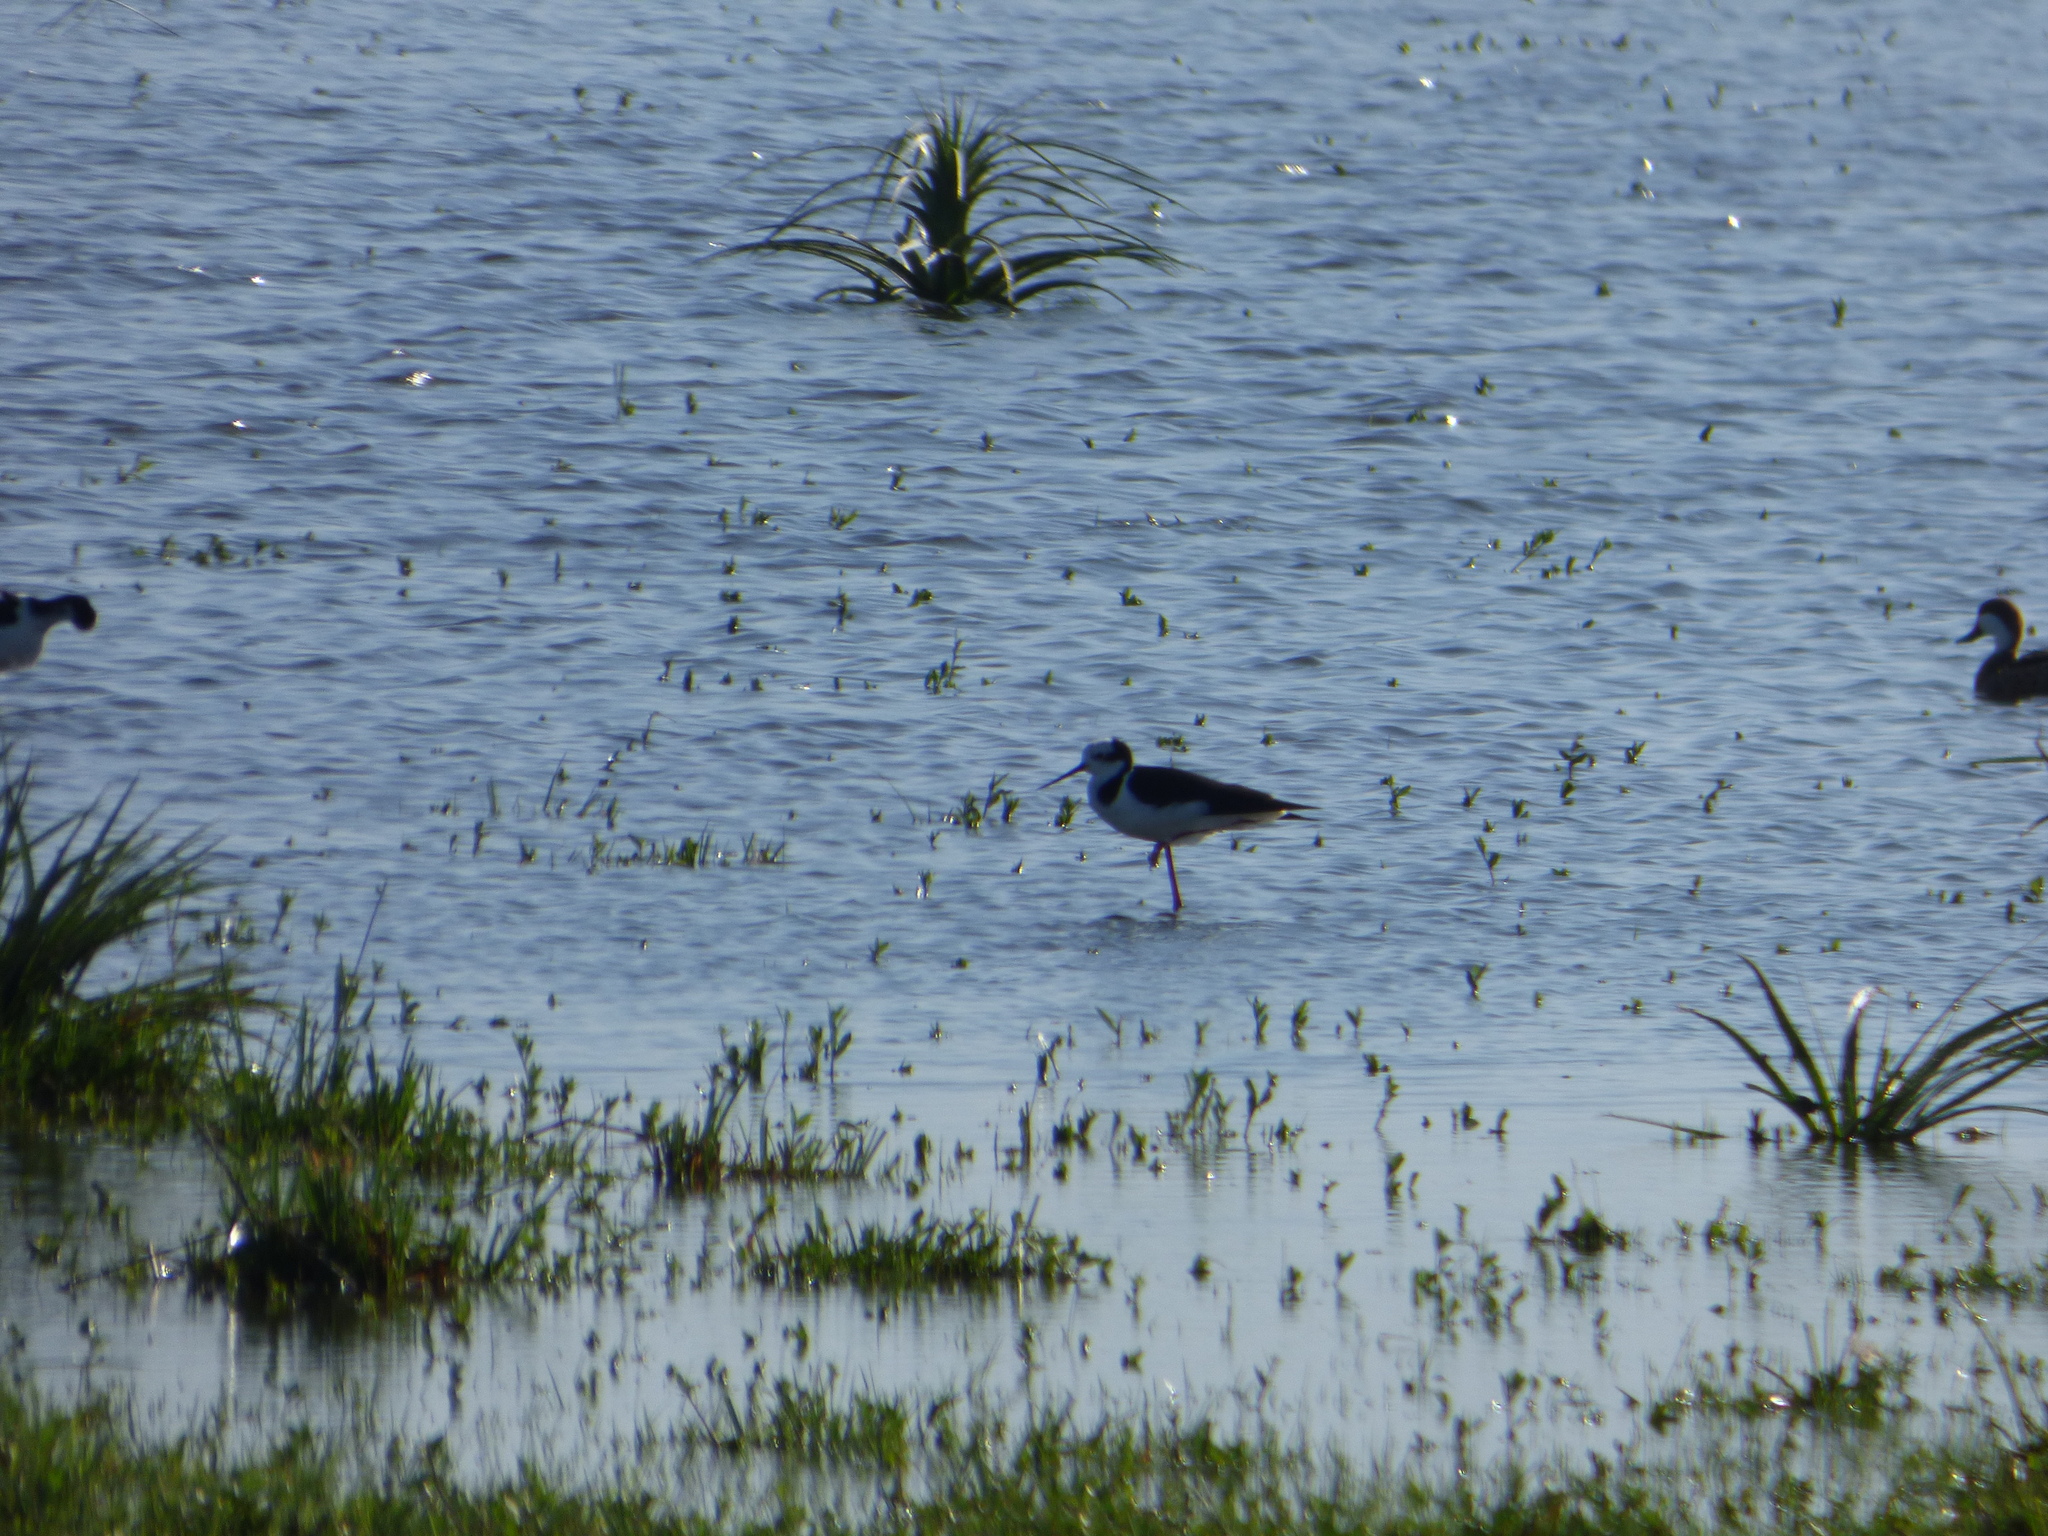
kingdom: Animalia
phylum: Chordata
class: Aves
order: Charadriiformes
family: Recurvirostridae
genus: Himantopus
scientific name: Himantopus mexicanus
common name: Black-necked stilt
